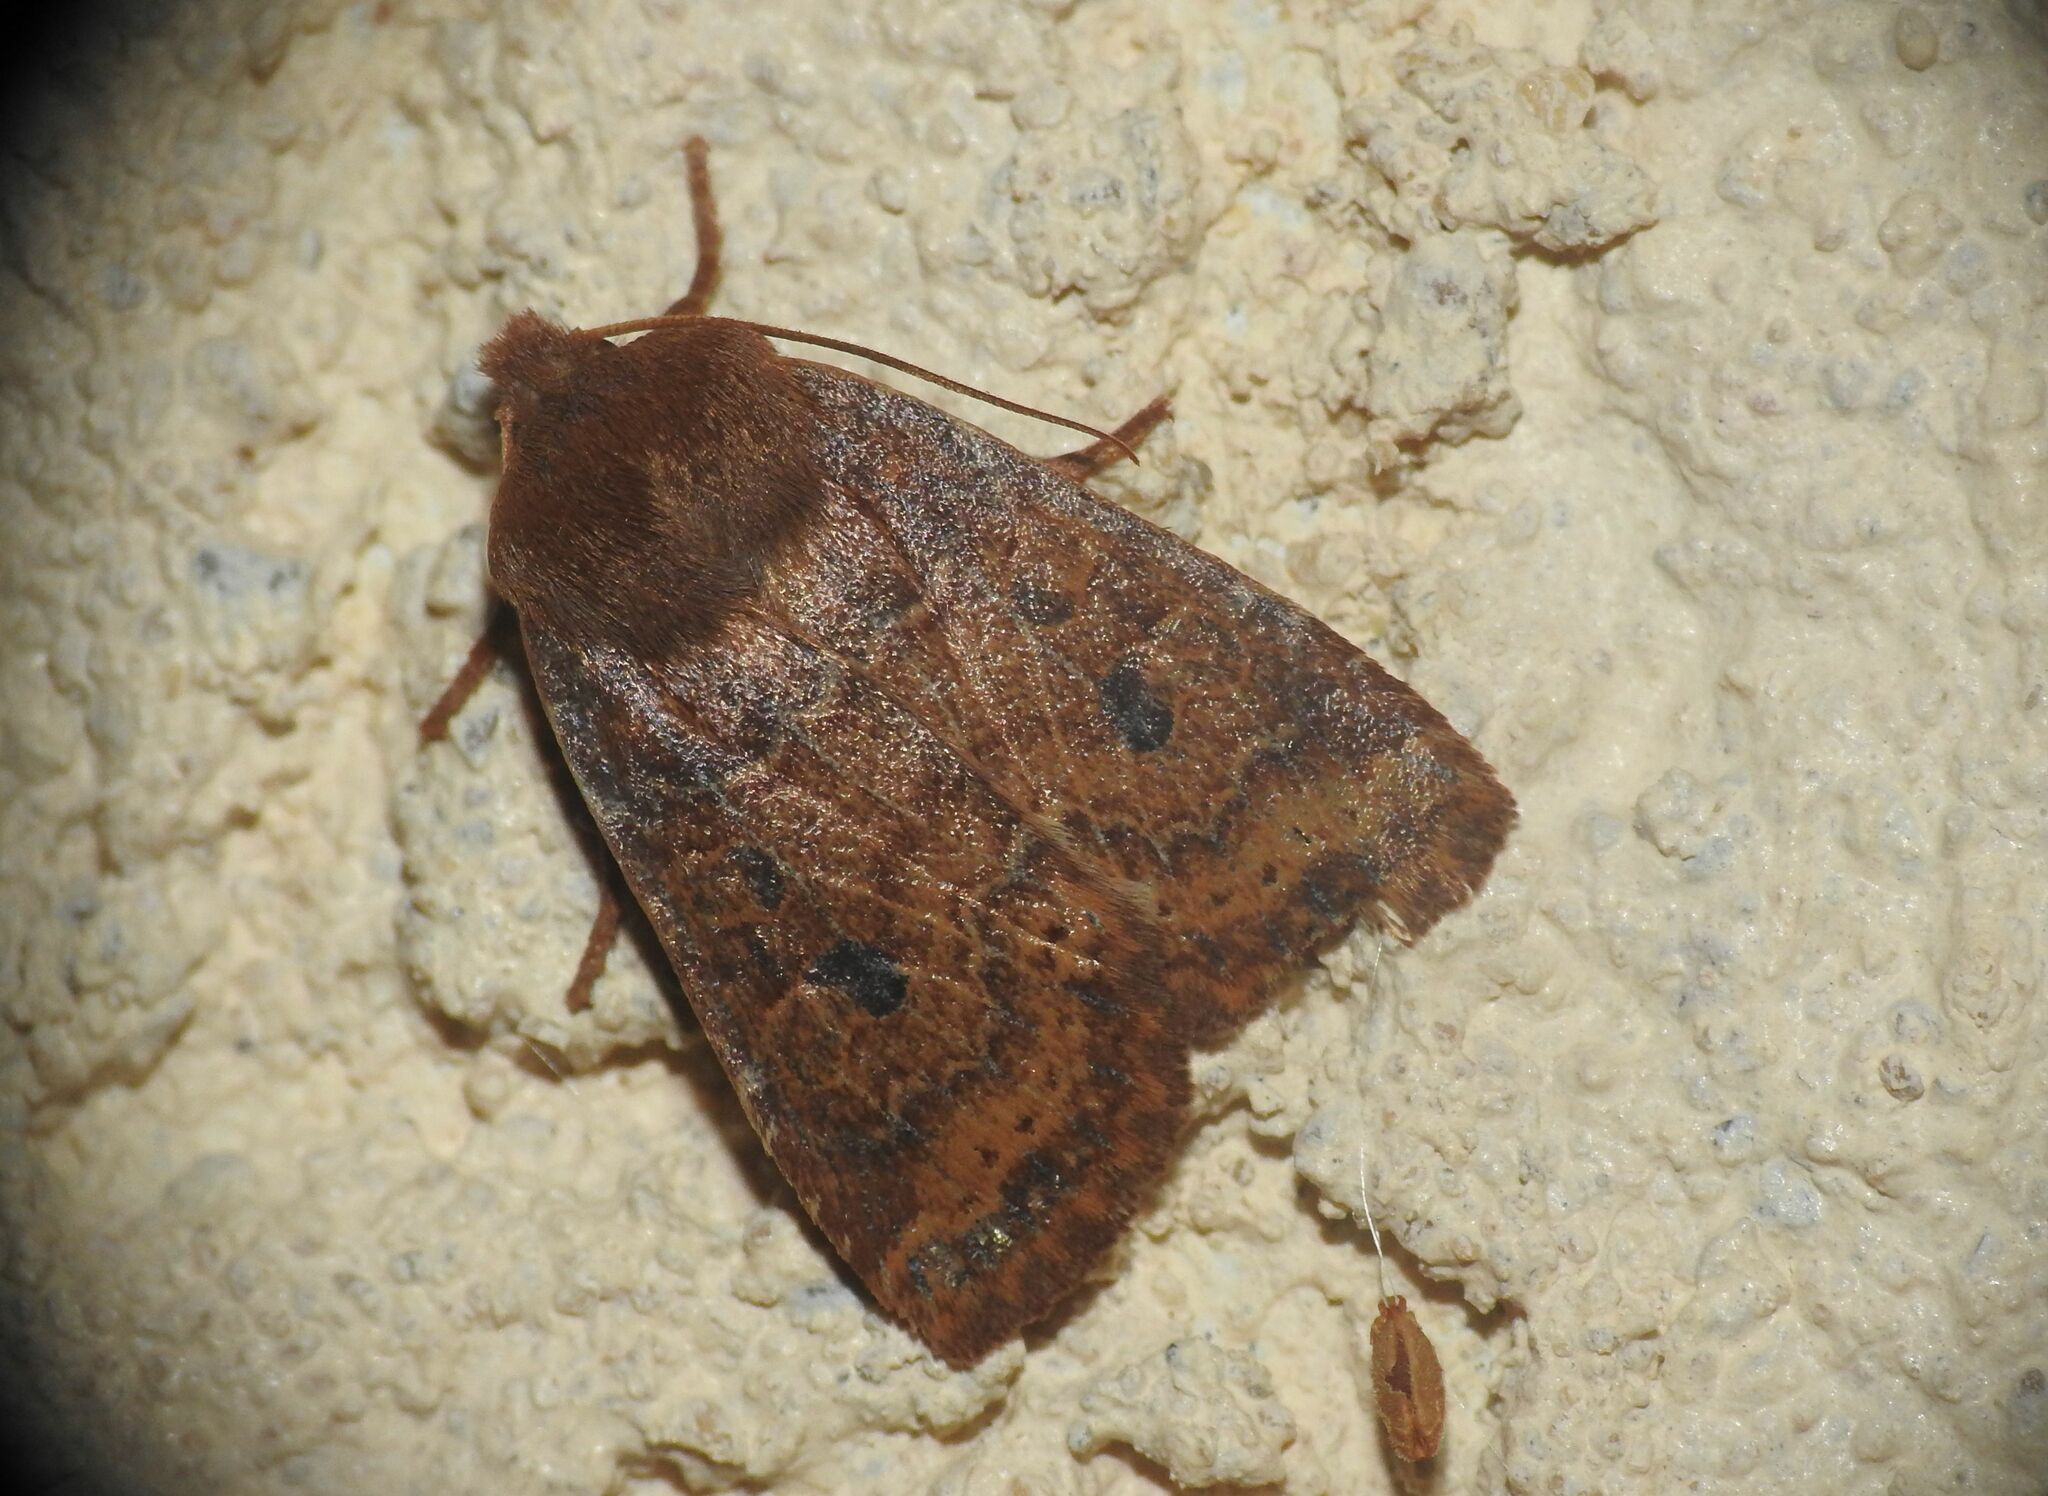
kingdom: Animalia
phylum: Arthropoda
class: Insecta
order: Lepidoptera
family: Noctuidae
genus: Conistra
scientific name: Conistra vaccinii
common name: Chestnut
